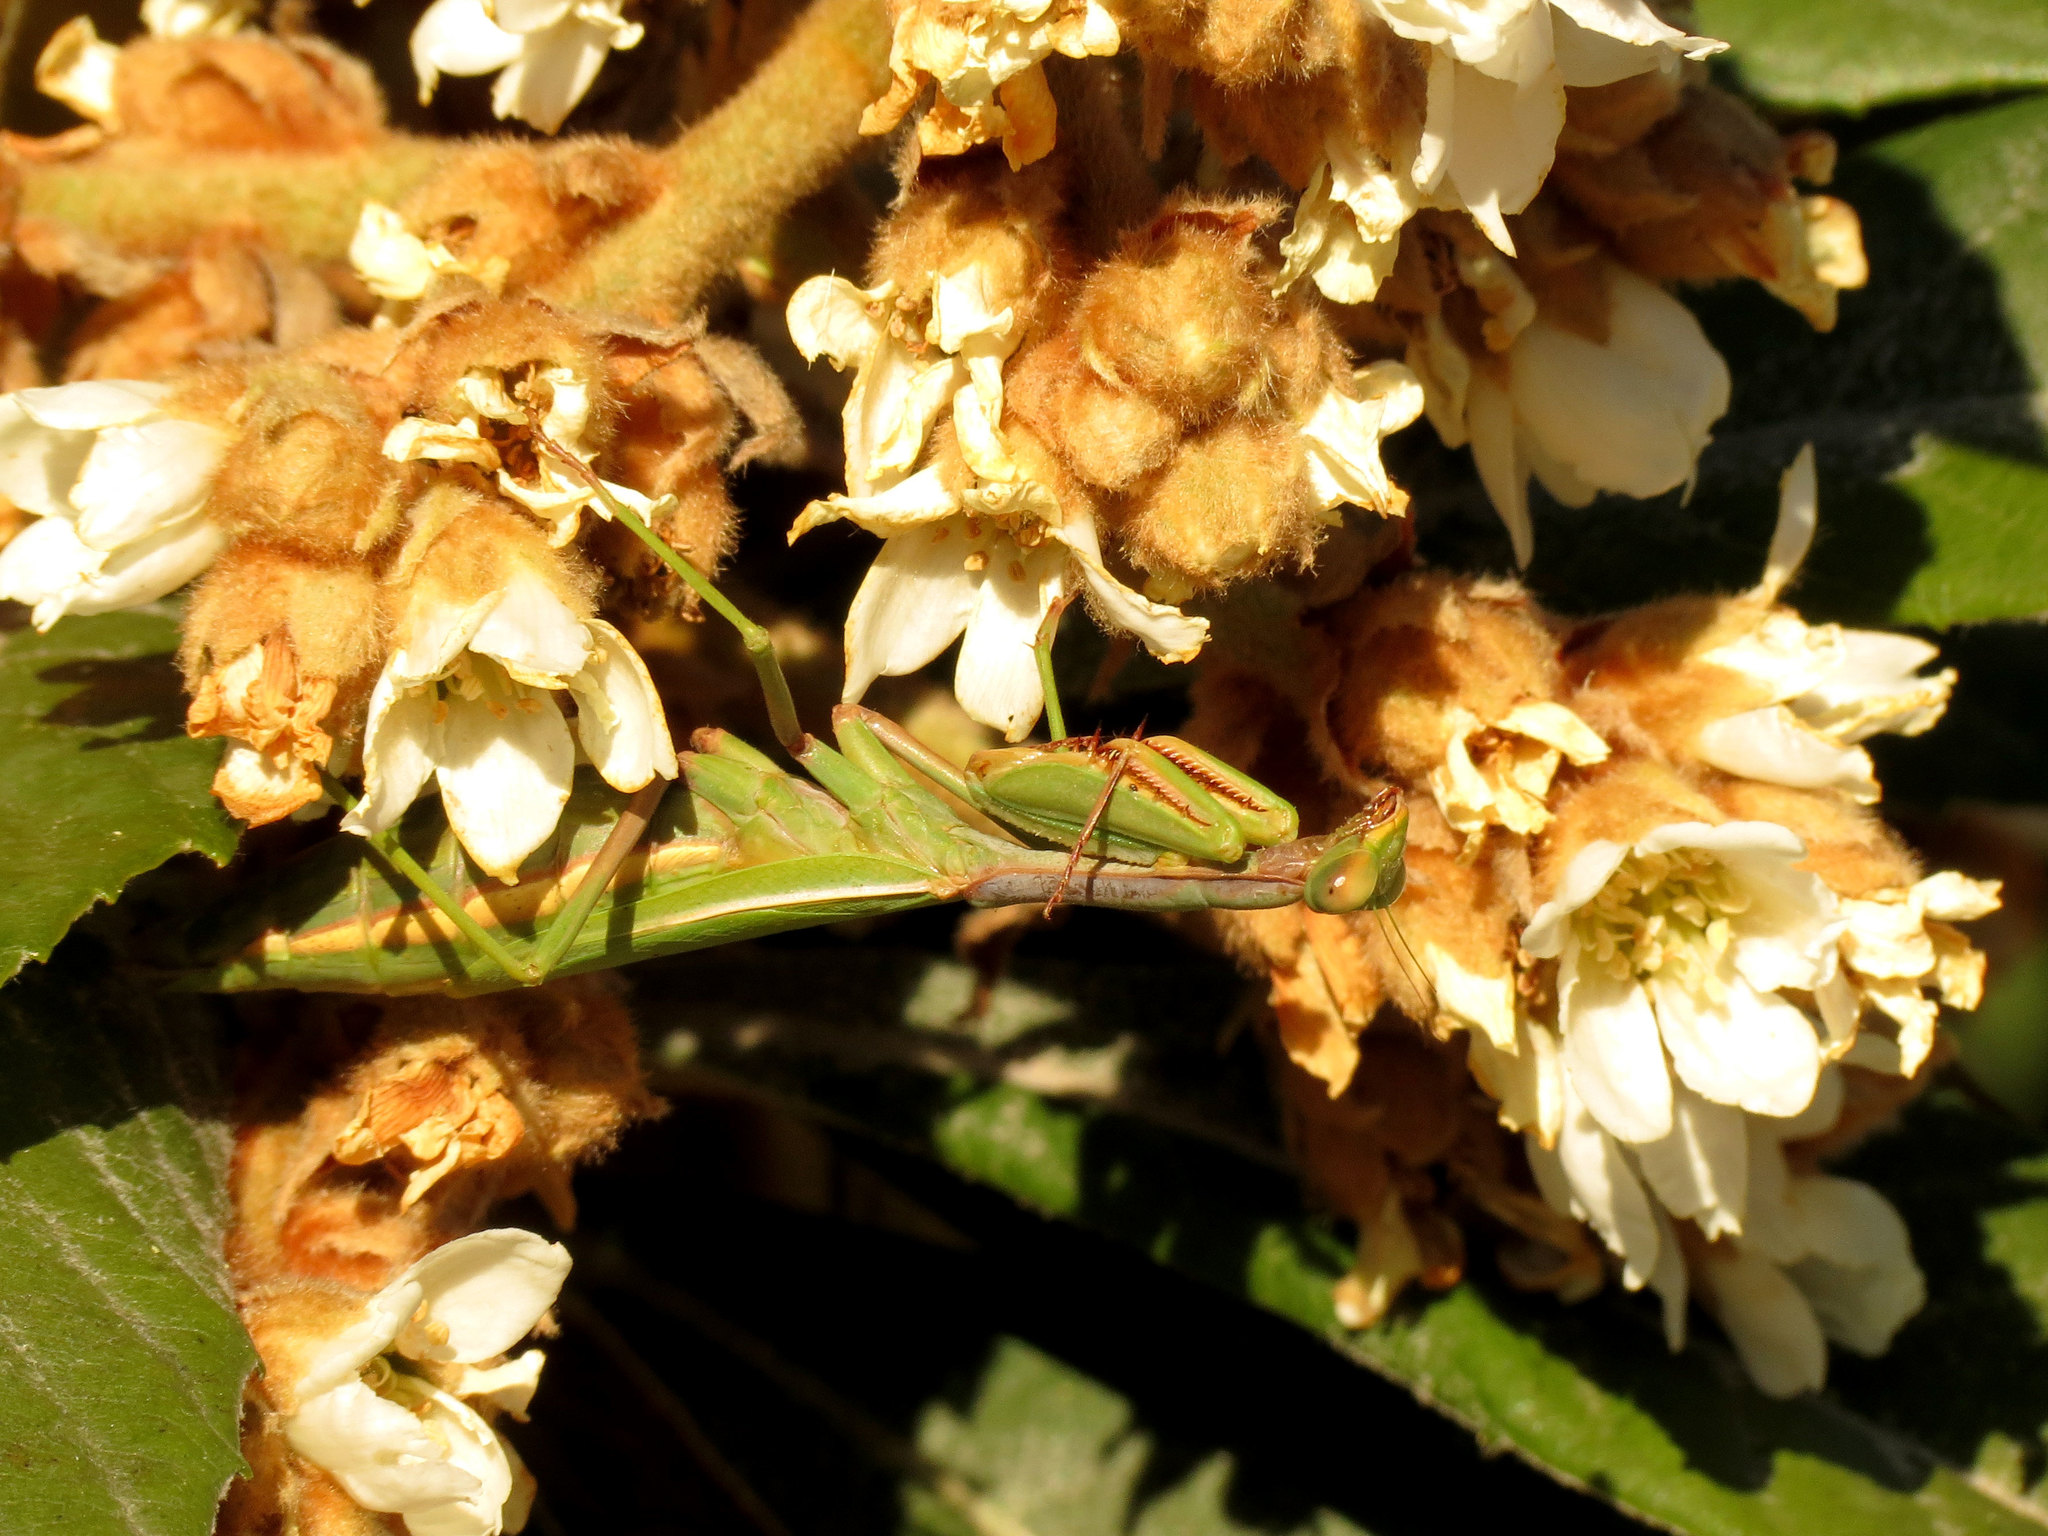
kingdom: Animalia
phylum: Arthropoda
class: Insecta
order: Mantodea
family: Eremiaphilidae
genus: Iris
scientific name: Iris oratoria
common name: Mediterranean mantis
